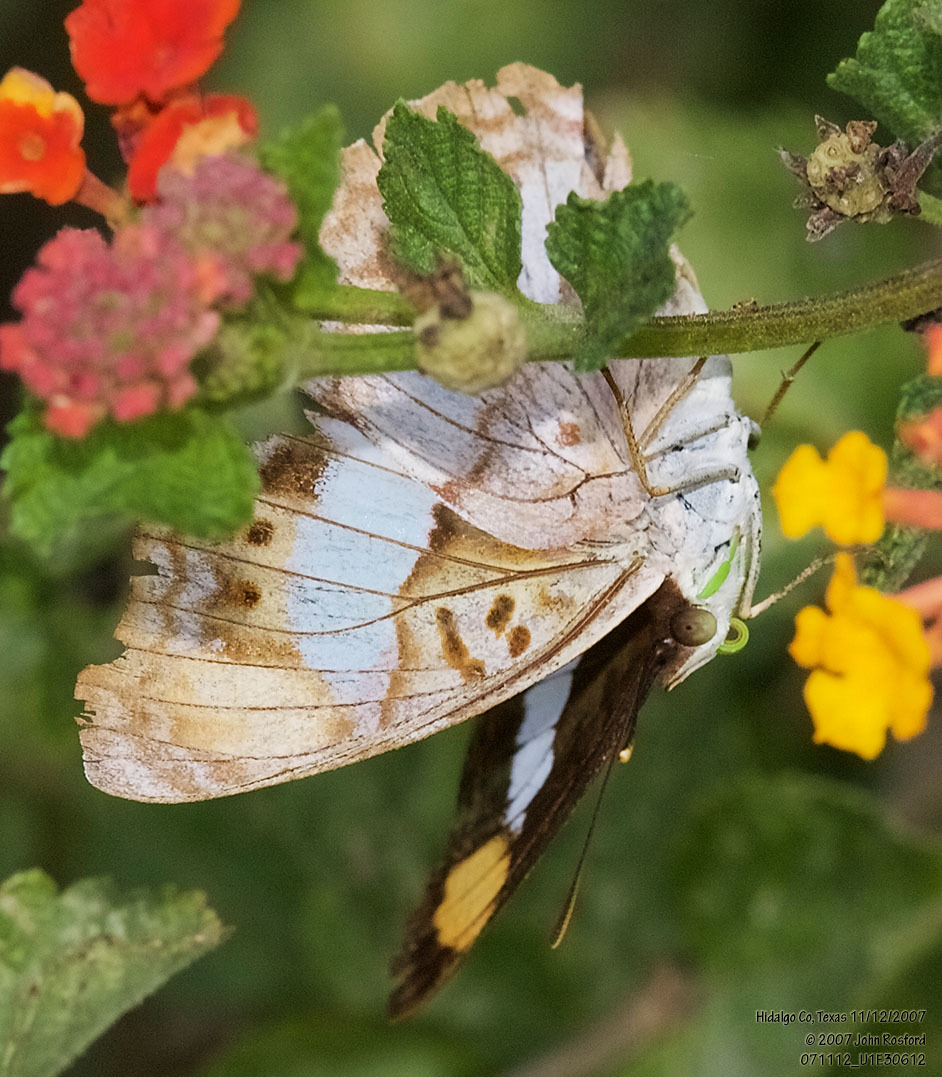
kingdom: Animalia
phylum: Arthropoda
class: Insecta
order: Lepidoptera
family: Nymphalidae
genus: Doxocopa
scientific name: Doxocopa pavon
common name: Pavon emperor
